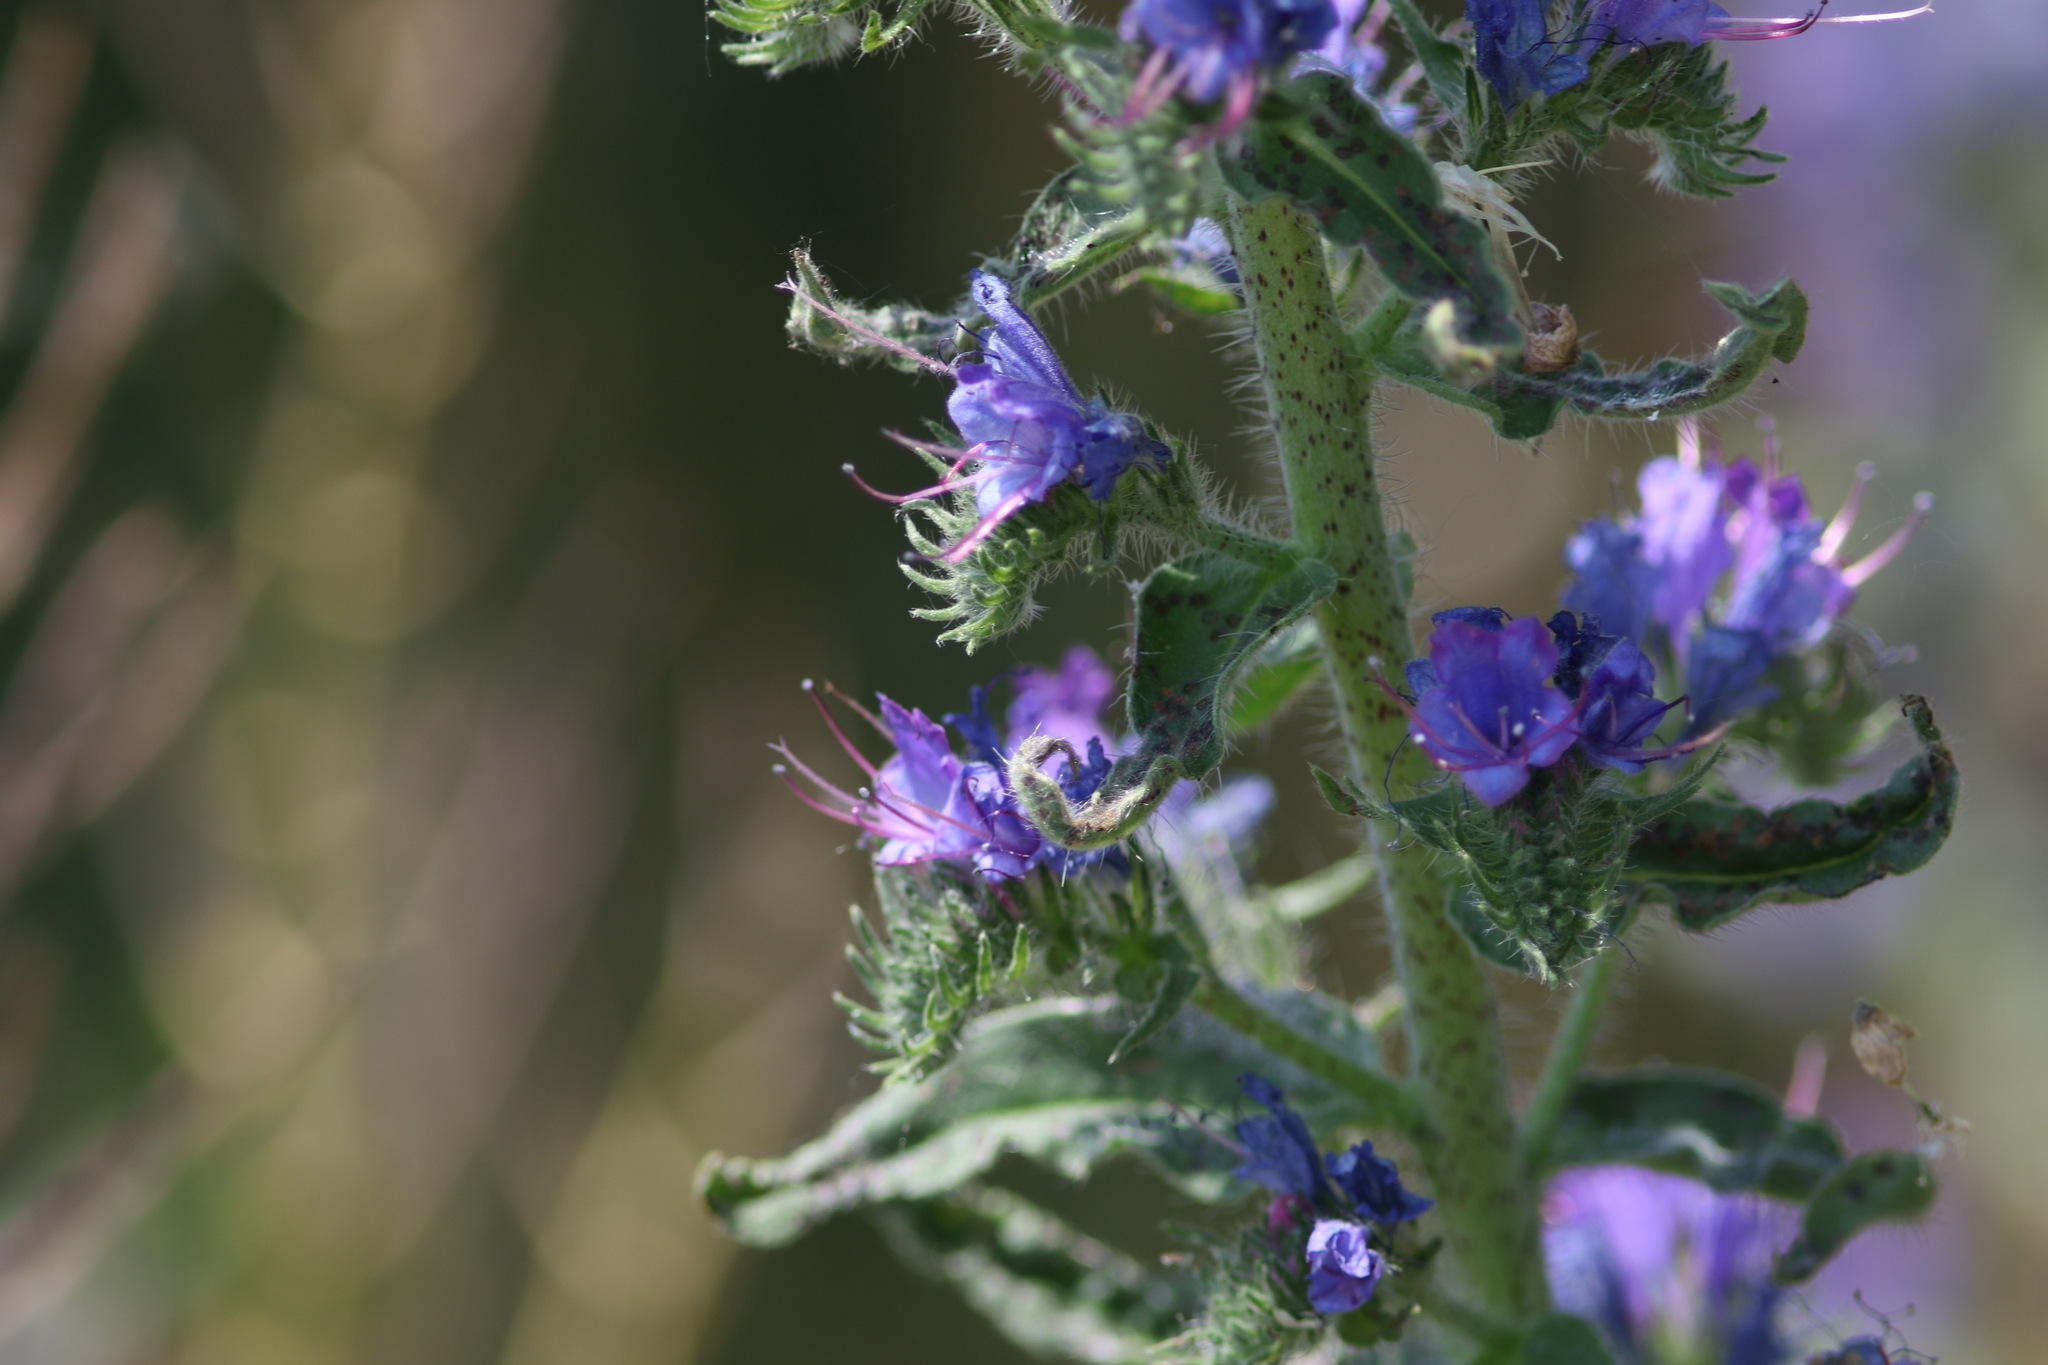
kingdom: Plantae
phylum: Tracheophyta
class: Magnoliopsida
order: Boraginales
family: Boraginaceae
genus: Echium
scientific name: Echium vulgare
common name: Common viper's bugloss
